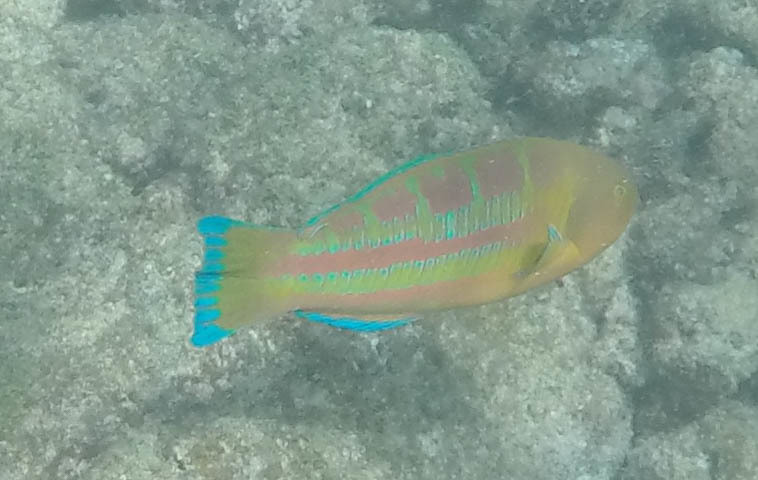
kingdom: Animalia
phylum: Chordata
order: Perciformes
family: Labridae
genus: Thalassoma
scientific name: Thalassoma trilobatum
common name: Christmas wrasse
